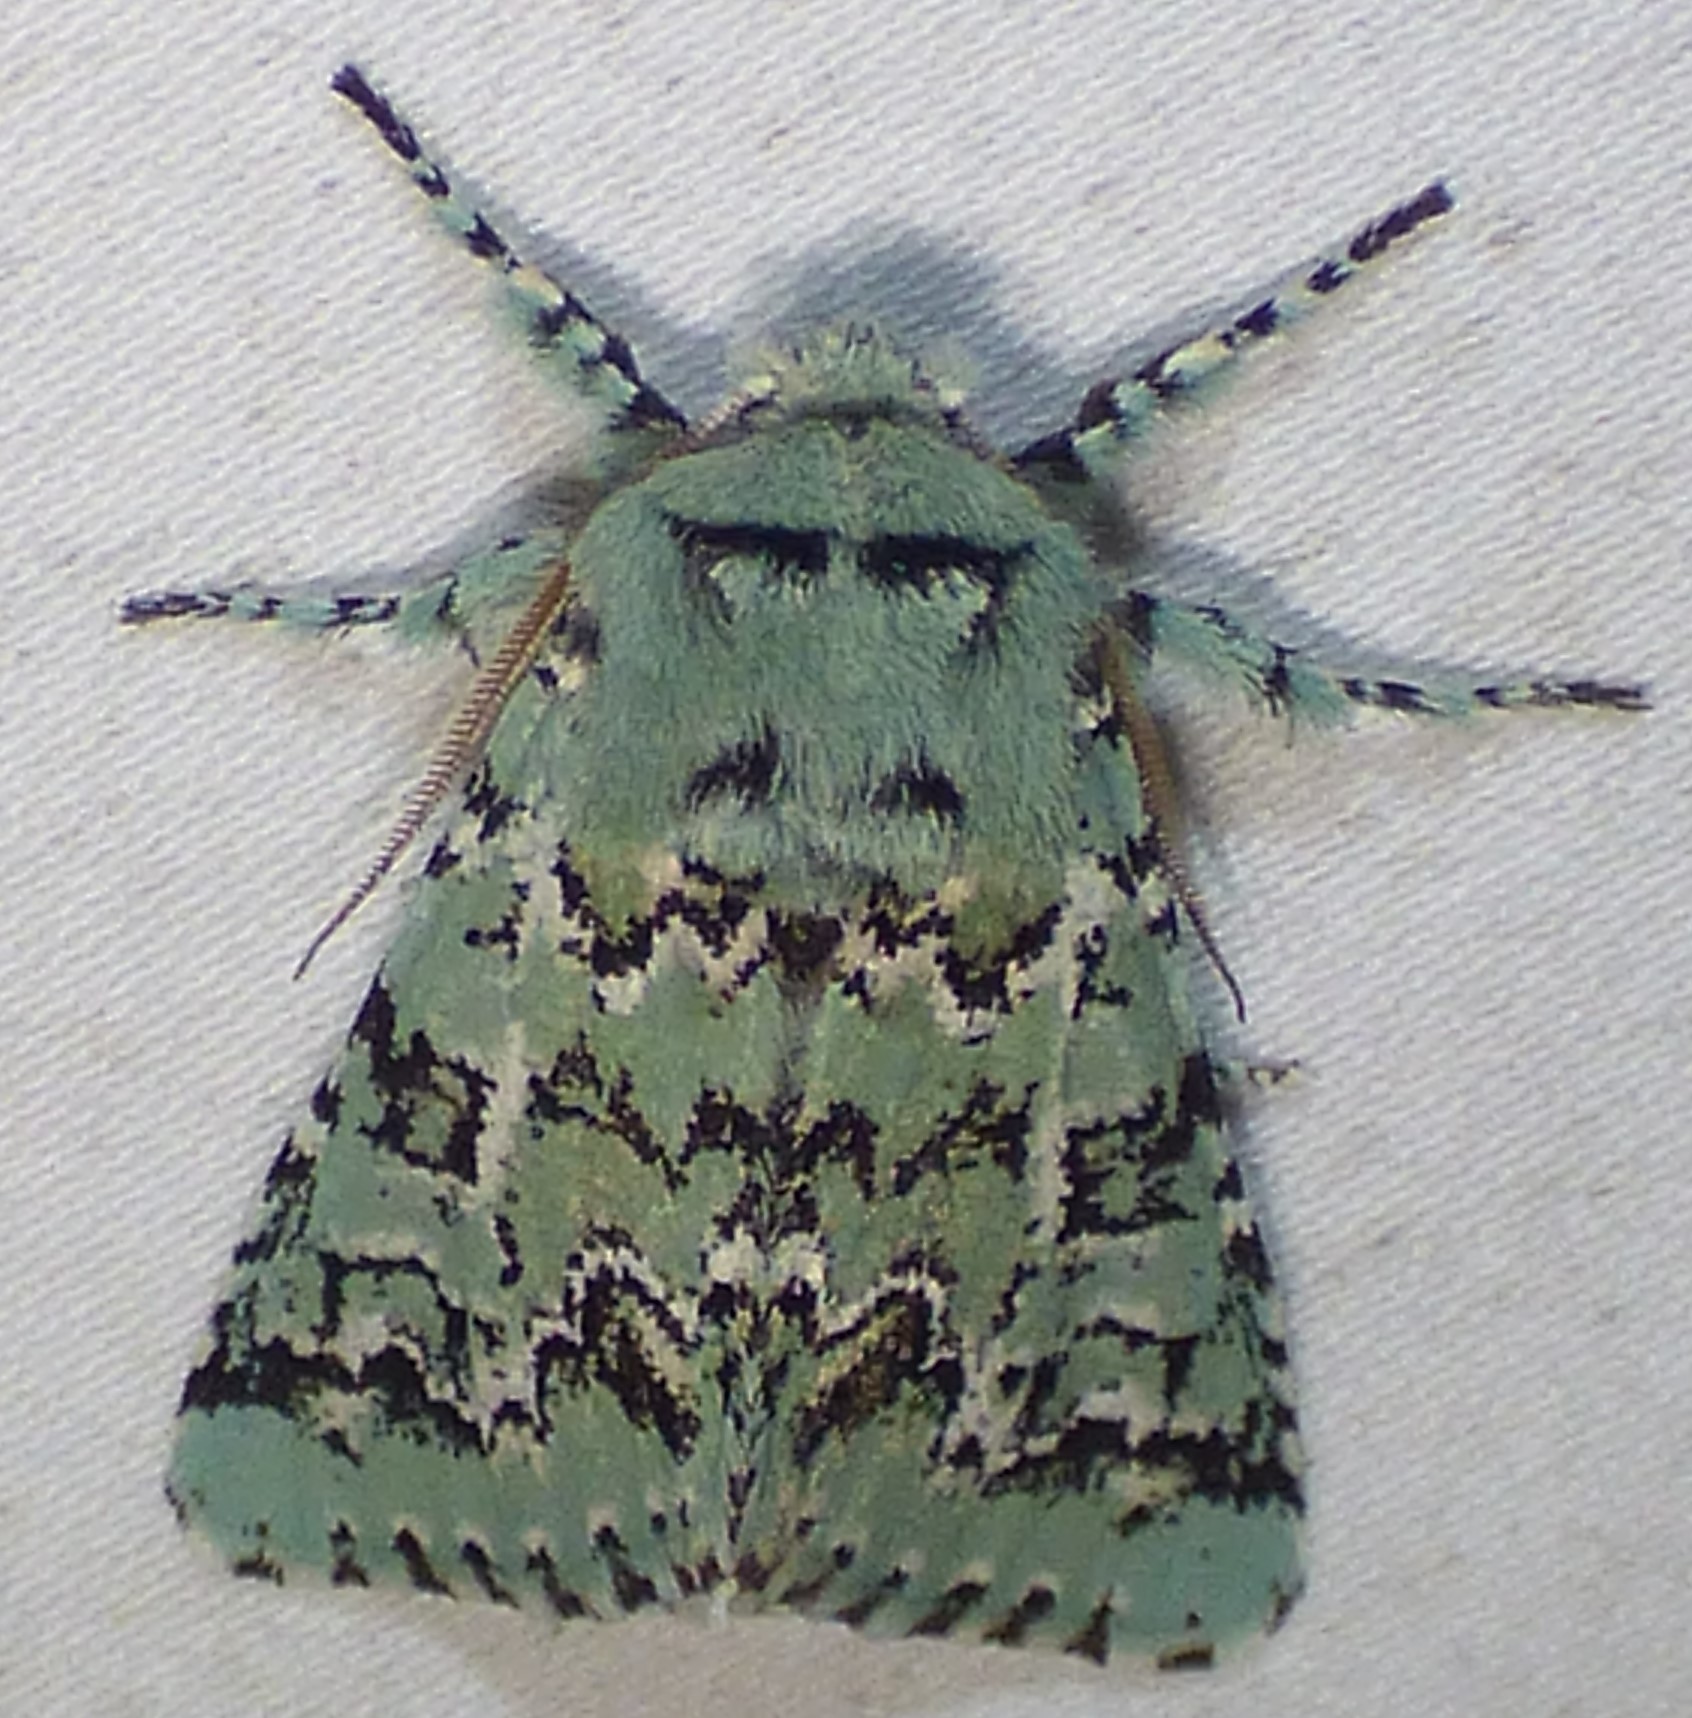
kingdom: Animalia
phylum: Arthropoda
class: Insecta
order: Lepidoptera
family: Noctuidae
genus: Feralia
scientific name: Feralia major
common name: Major sallow
